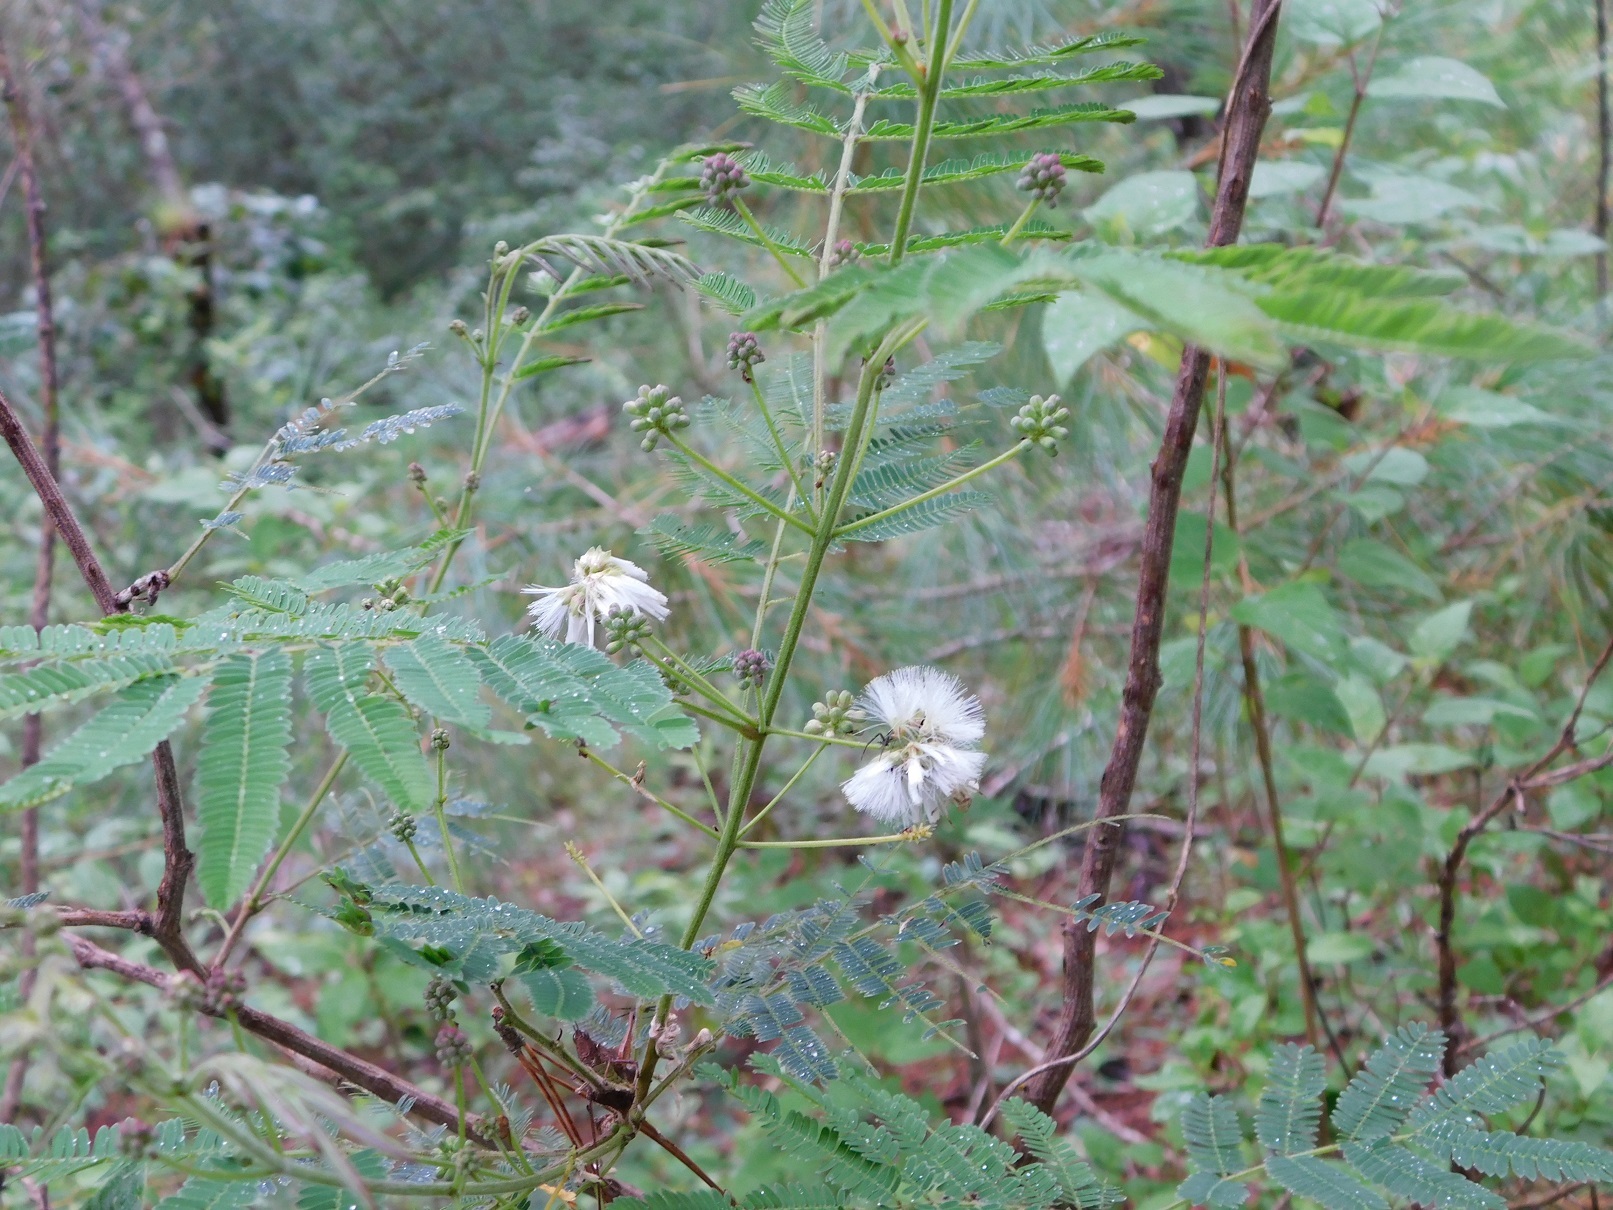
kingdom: Plantae
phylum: Tracheophyta
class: Magnoliopsida
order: Fabales
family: Fabaceae
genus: Acaciella
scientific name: Acaciella angustissima
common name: Prairie acacia
